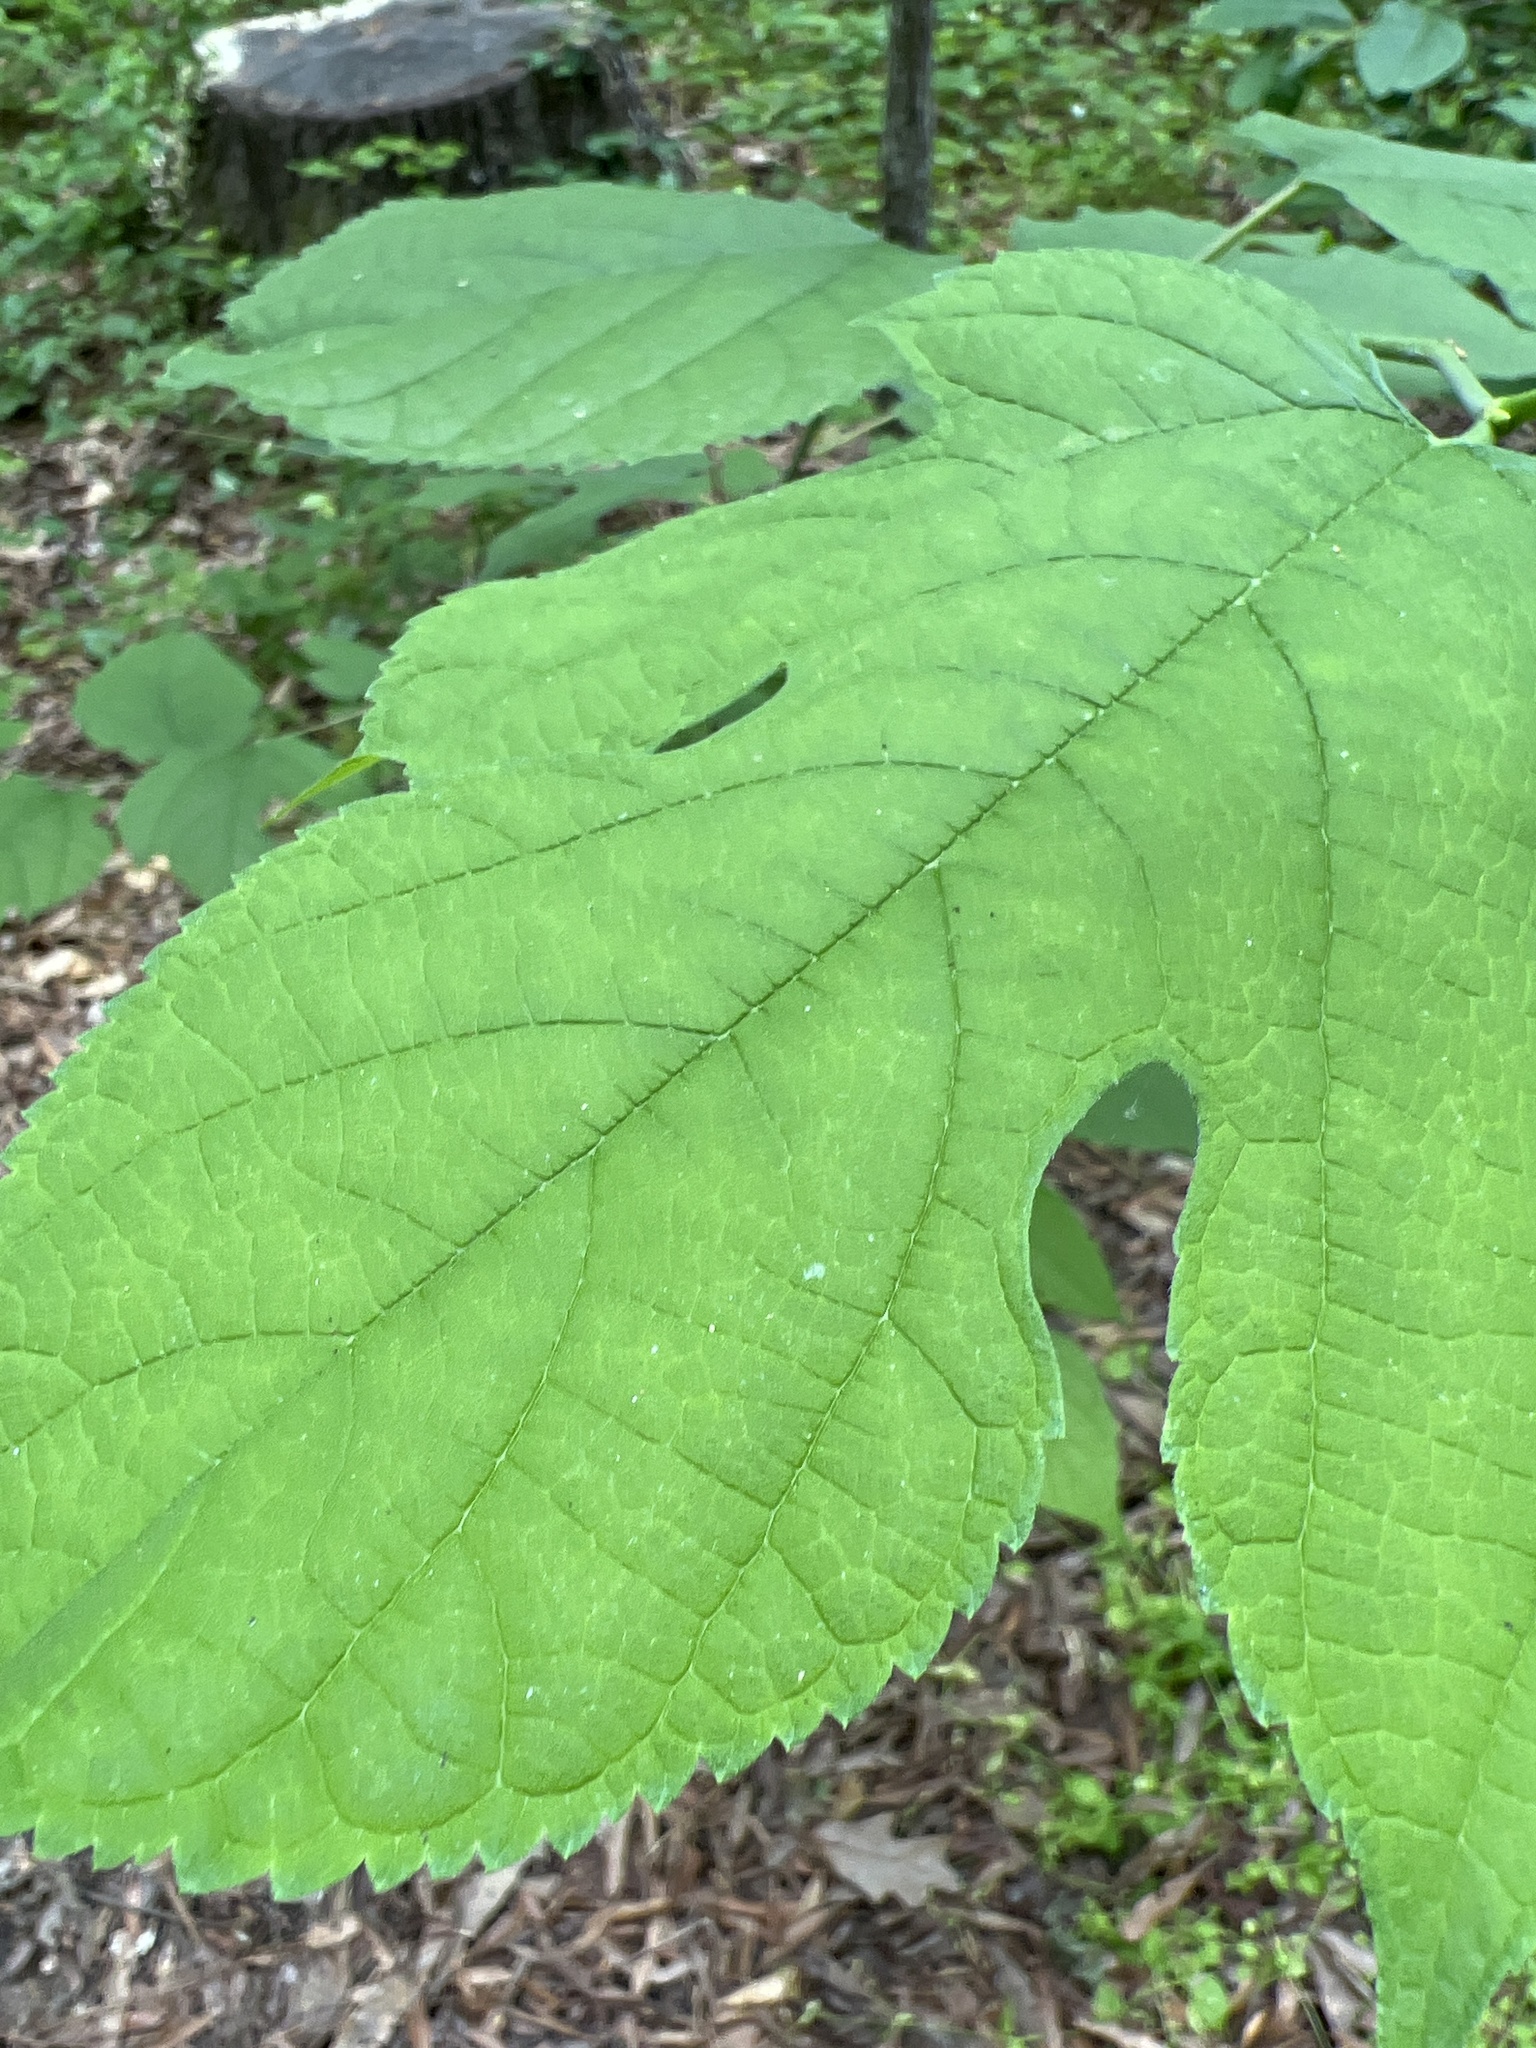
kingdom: Plantae
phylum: Tracheophyta
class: Magnoliopsida
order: Rosales
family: Moraceae
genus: Morus
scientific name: Morus rubra
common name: Red mulberry
